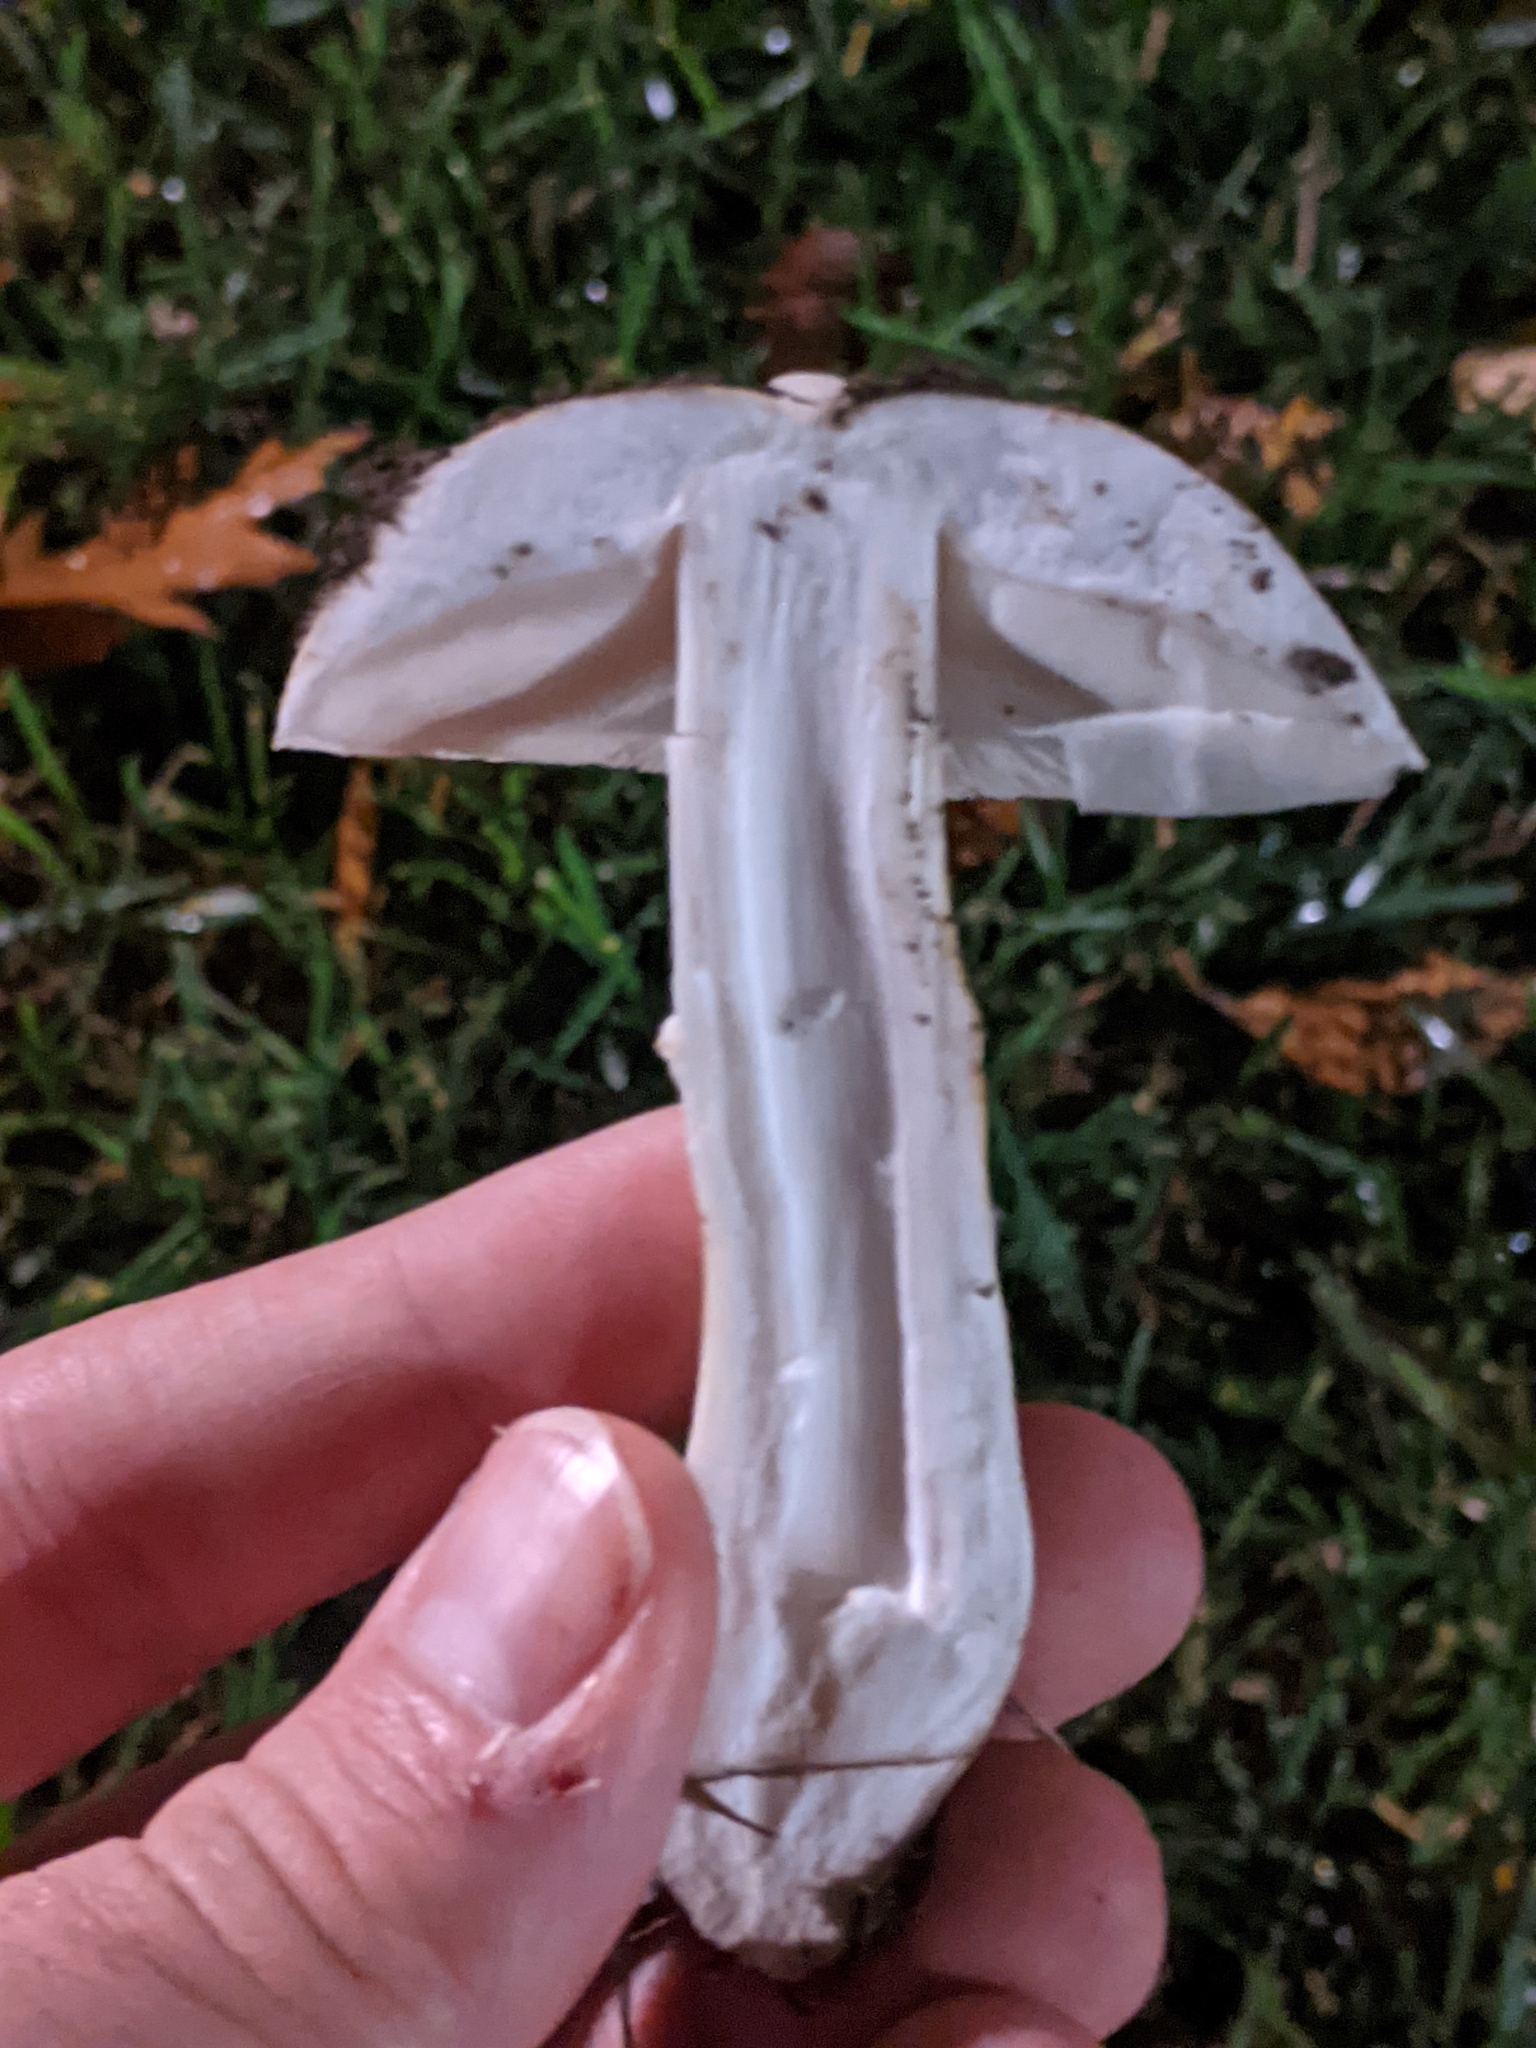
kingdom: Fungi
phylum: Basidiomycota
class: Agaricomycetes
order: Agaricales
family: Agaricaceae
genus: Leucoagaricus
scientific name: Leucoagaricus leucothites
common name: White dapperling
